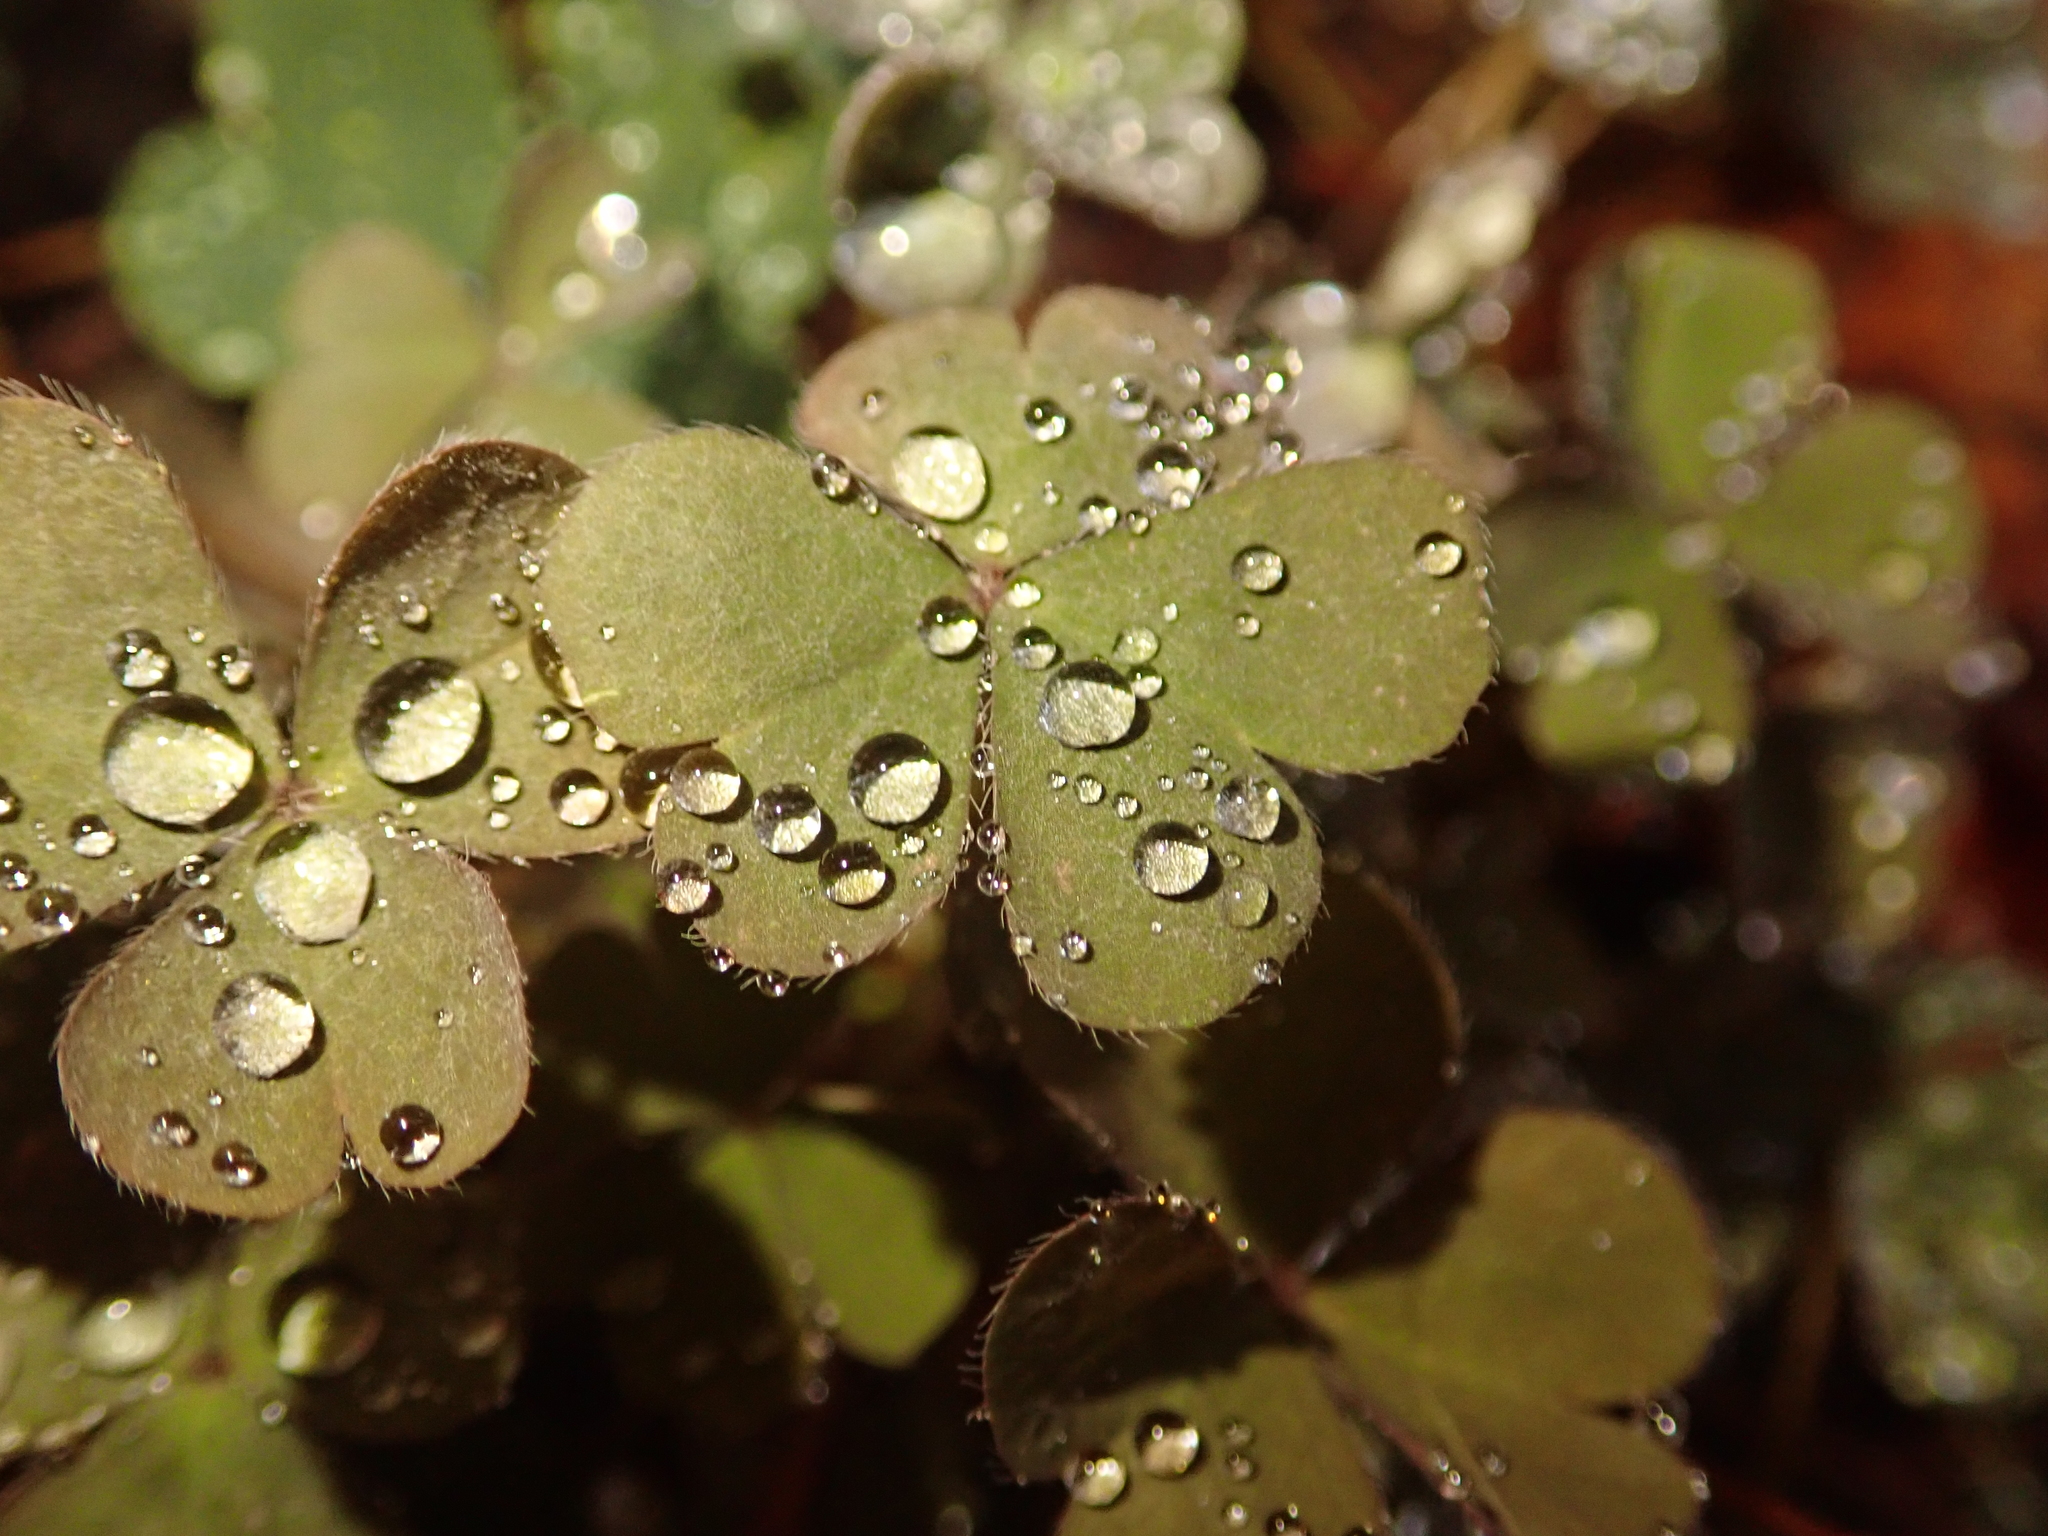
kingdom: Plantae
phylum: Tracheophyta
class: Magnoliopsida
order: Oxalidales
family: Oxalidaceae
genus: Oxalis
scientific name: Oxalis corniculata
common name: Procumbent yellow-sorrel
